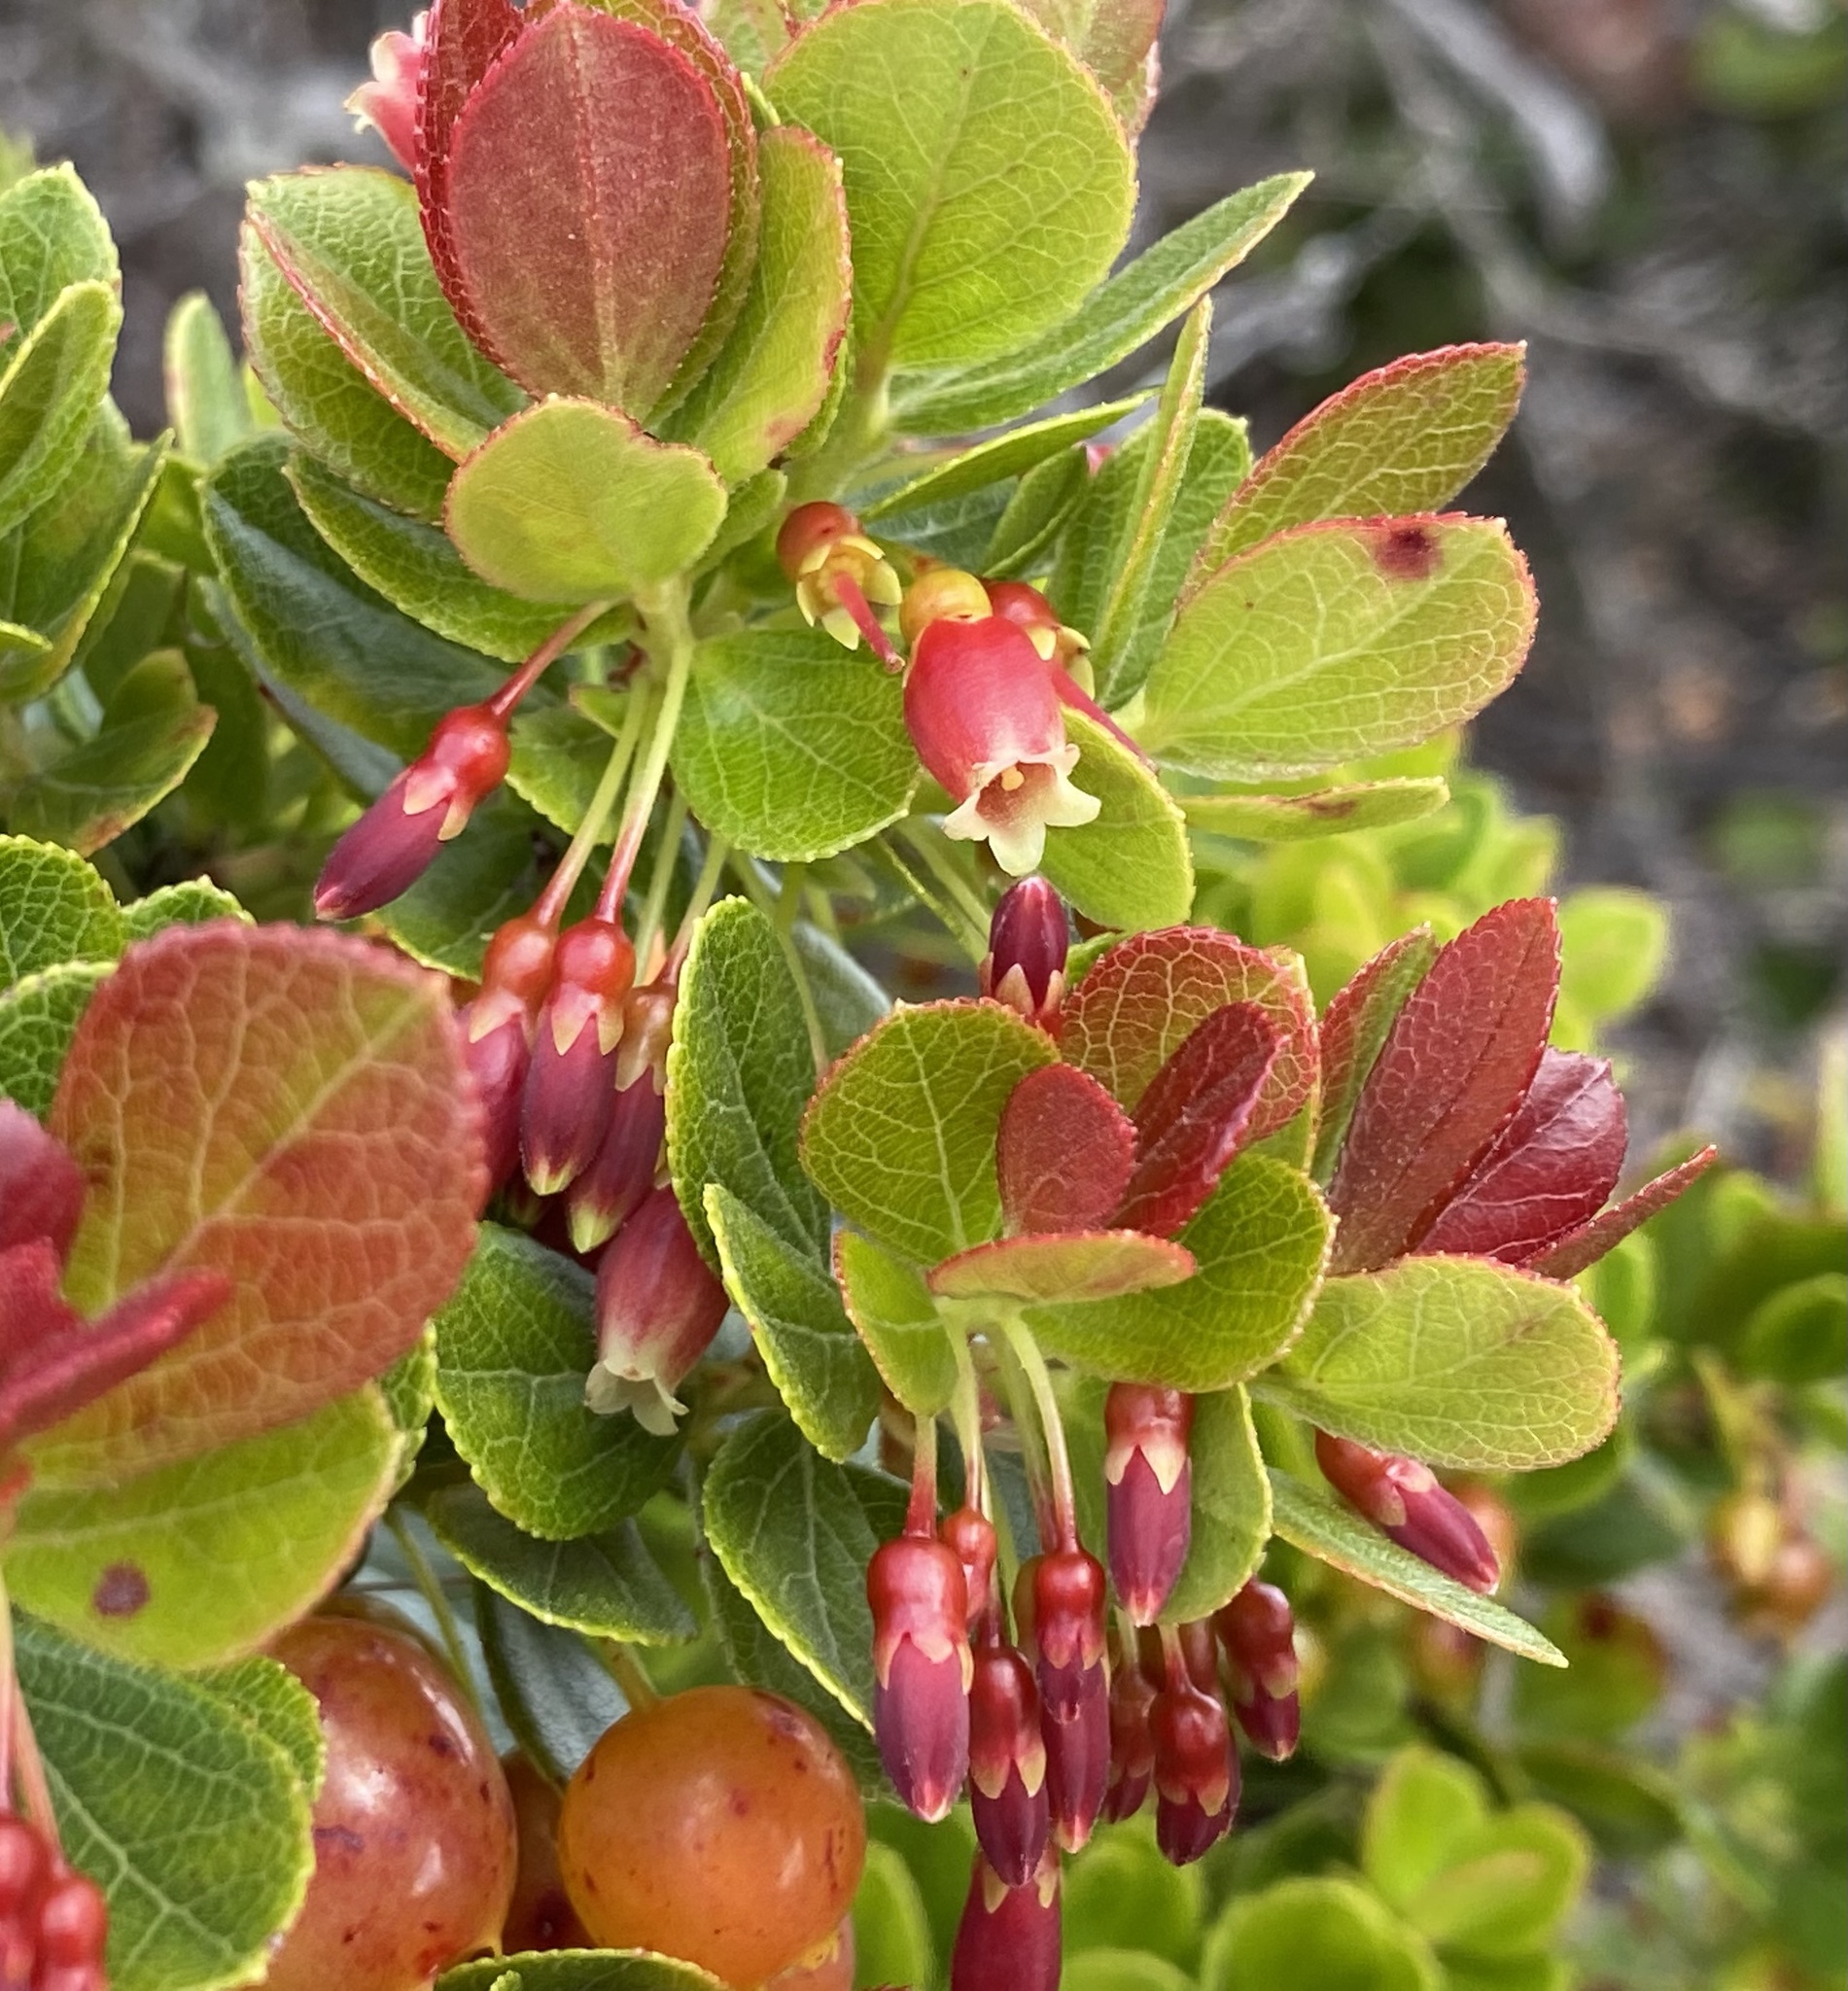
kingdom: Plantae
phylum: Tracheophyta
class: Magnoliopsida
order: Ericales
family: Ericaceae
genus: Vaccinium
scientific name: Vaccinium reticulatum
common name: Ohelo
